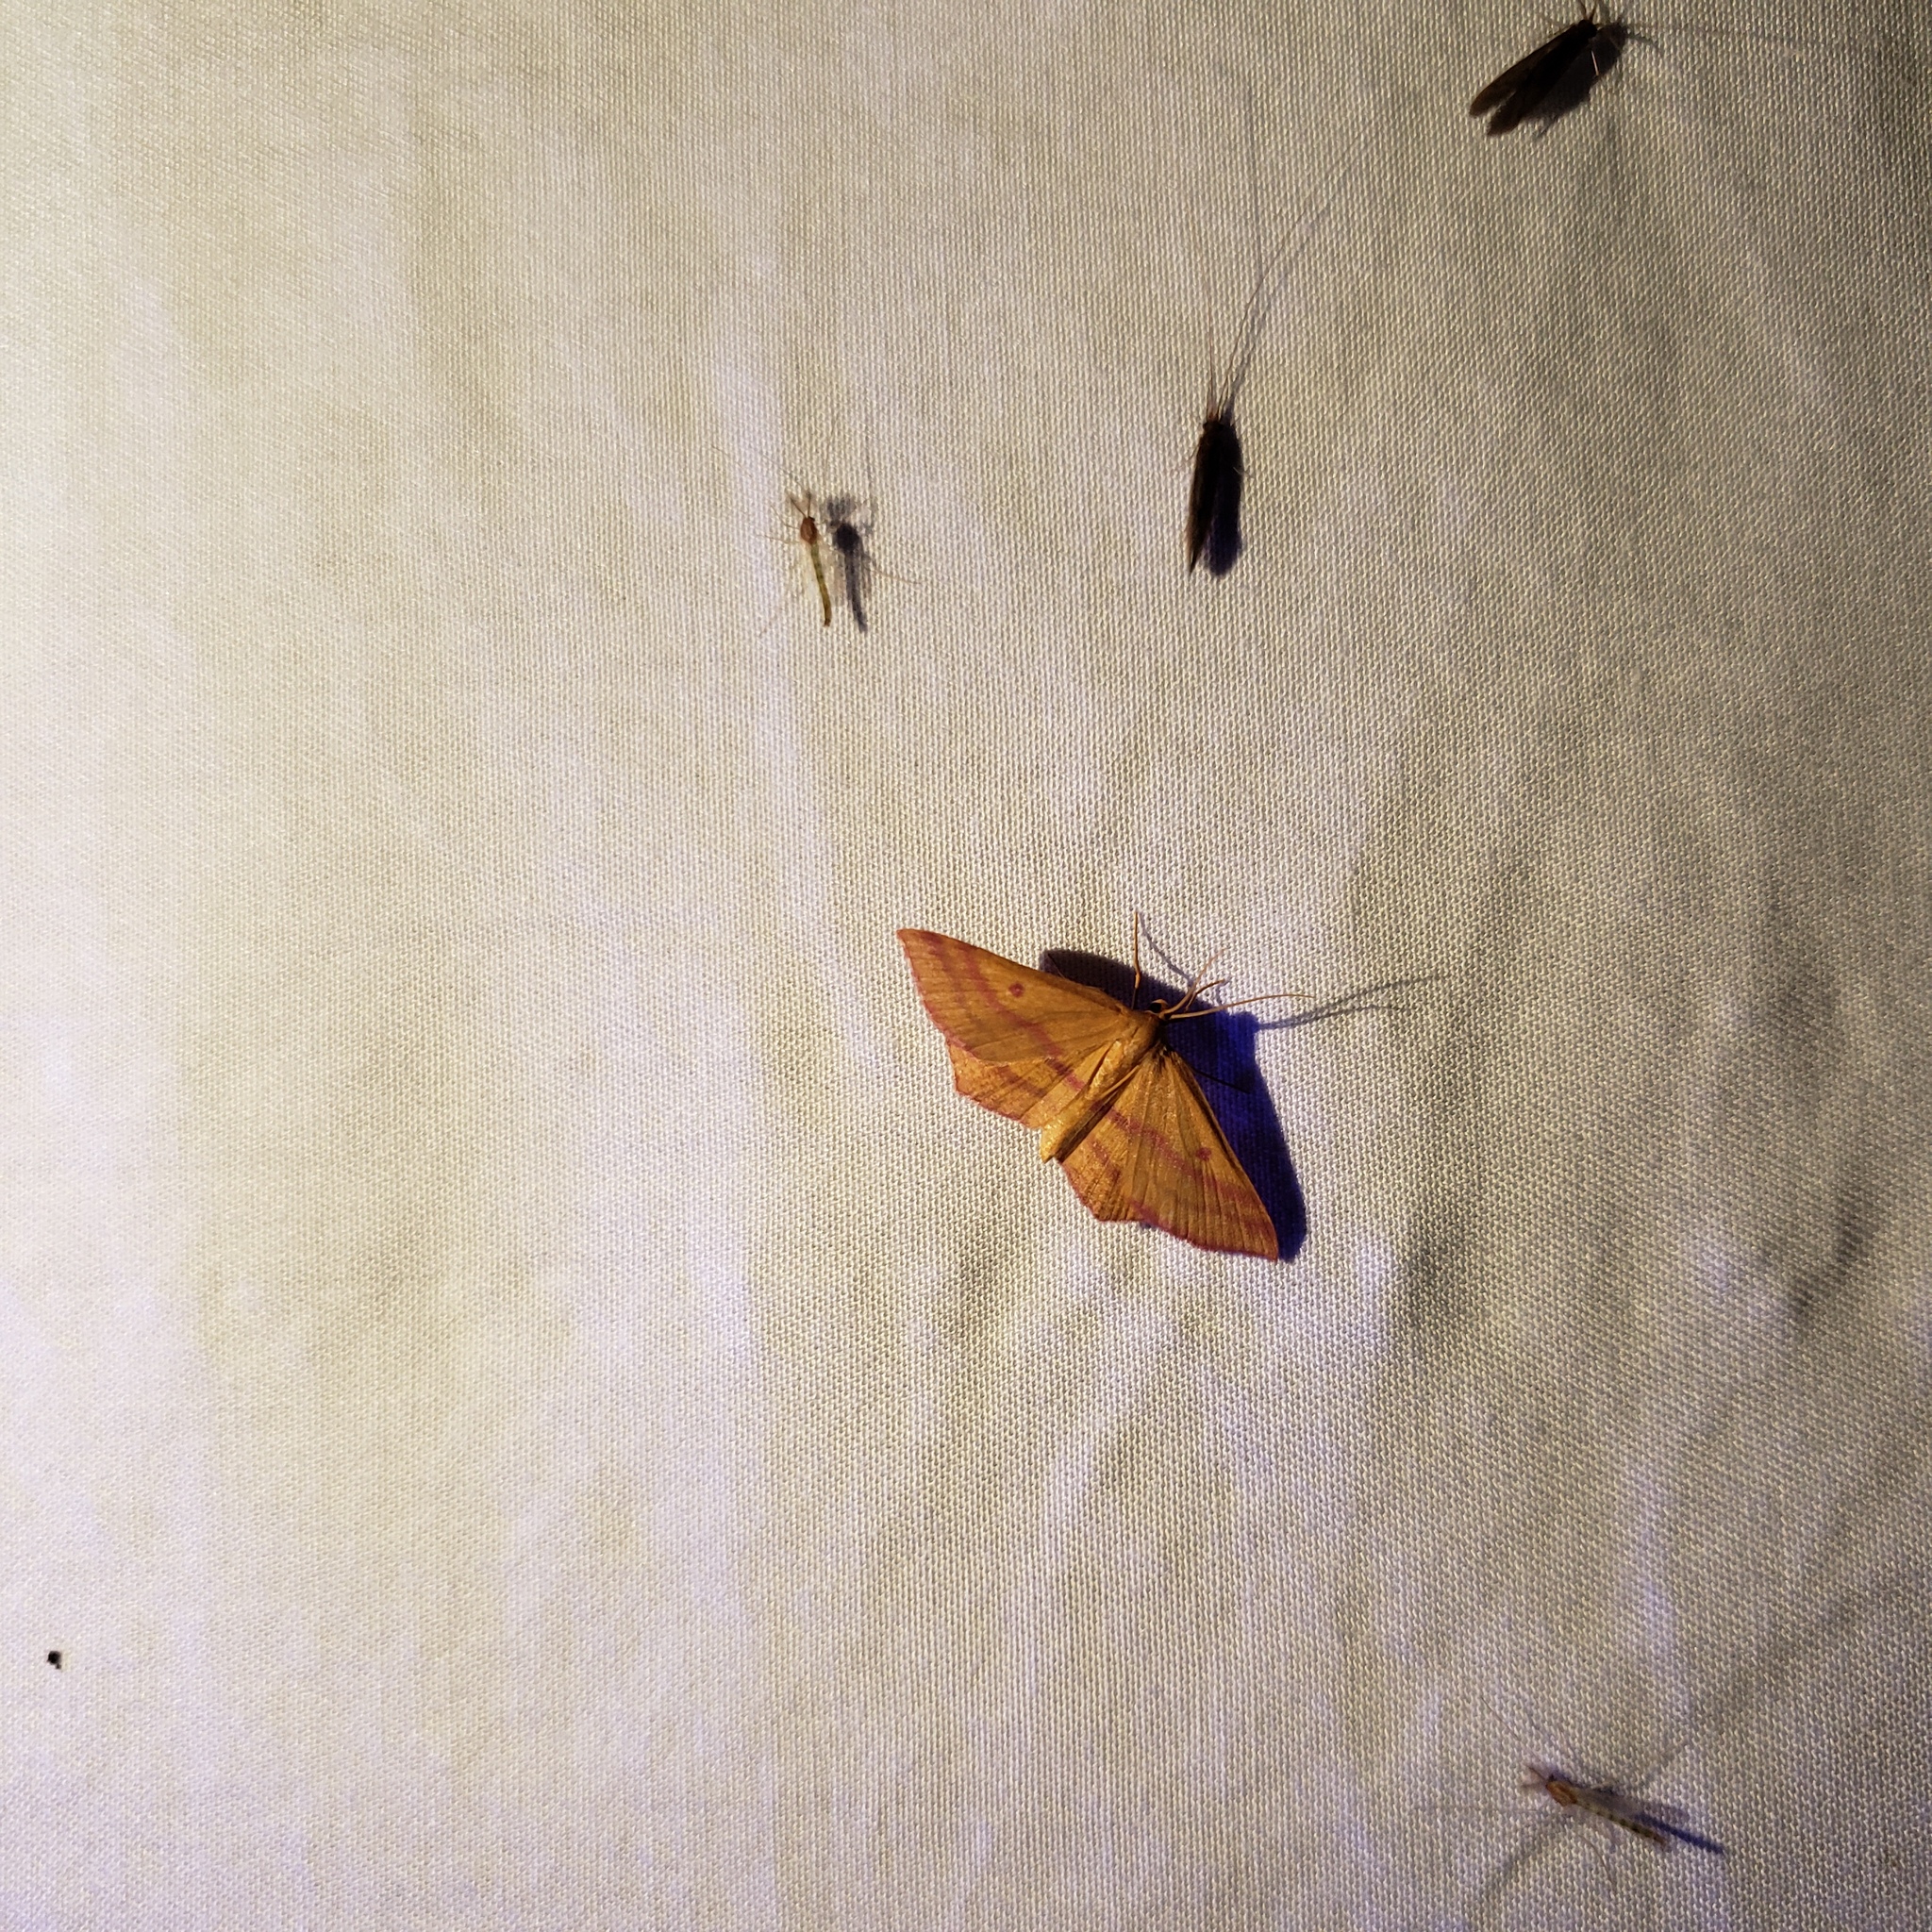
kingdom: Animalia
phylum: Arthropoda
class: Insecta
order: Lepidoptera
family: Geometridae
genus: Haematopis
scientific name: Haematopis grataria
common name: Chickweed geometer
